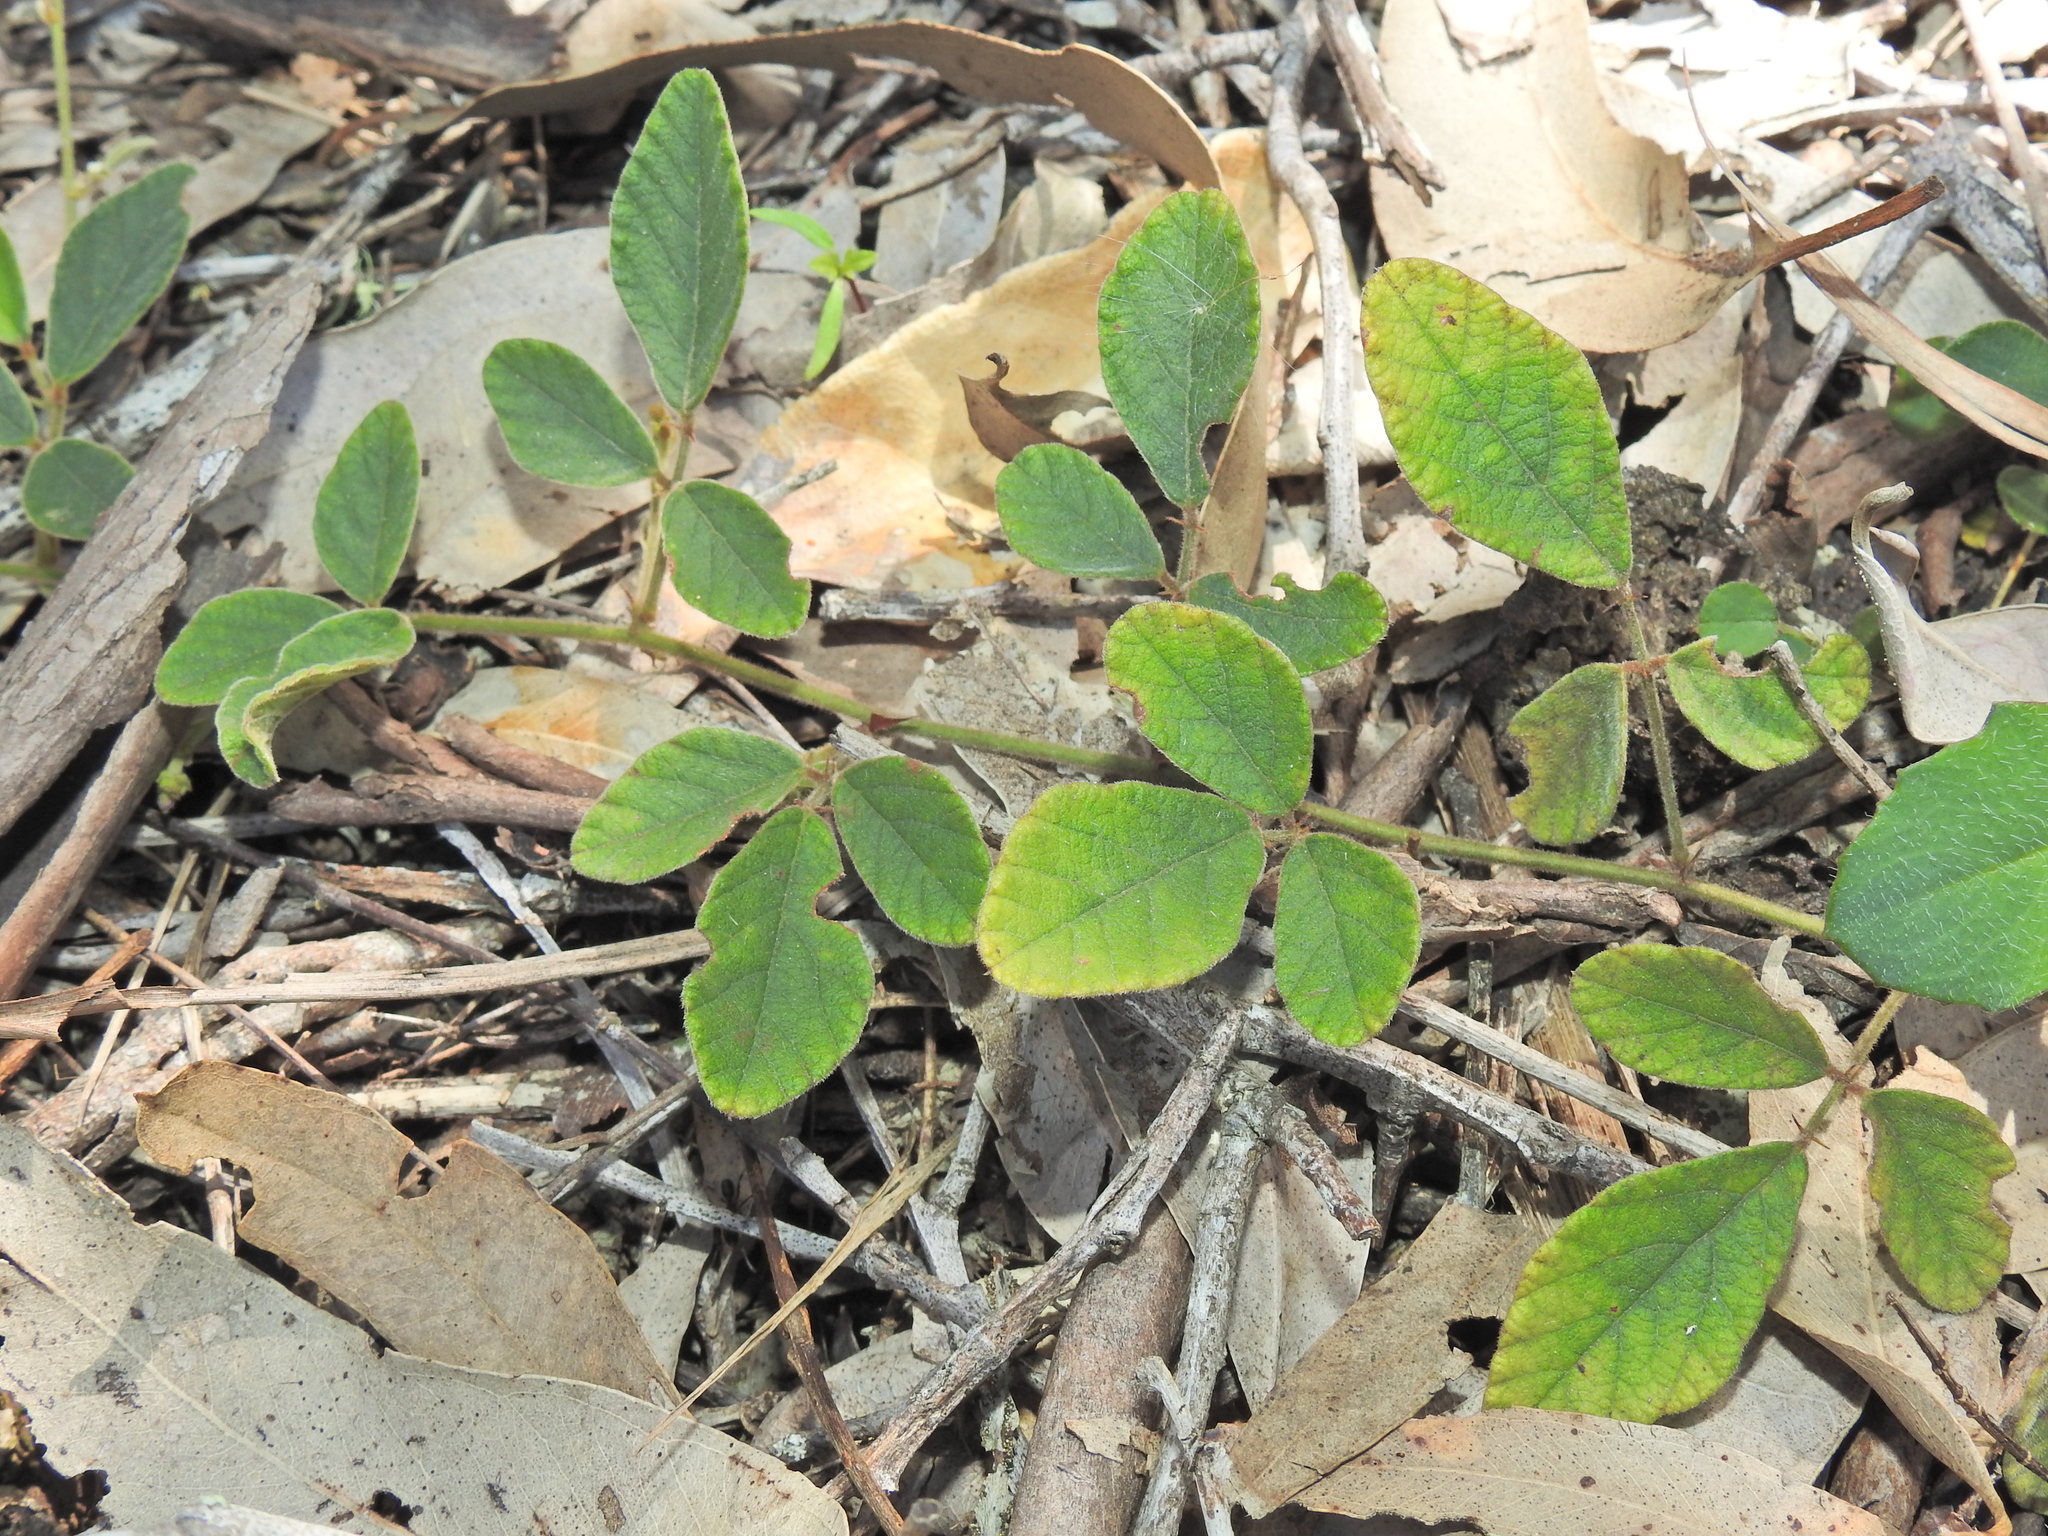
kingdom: Plantae
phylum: Tracheophyta
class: Magnoliopsida
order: Fabales
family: Fabaceae
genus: Maekawaea
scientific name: Maekawaea rhytidophylla
